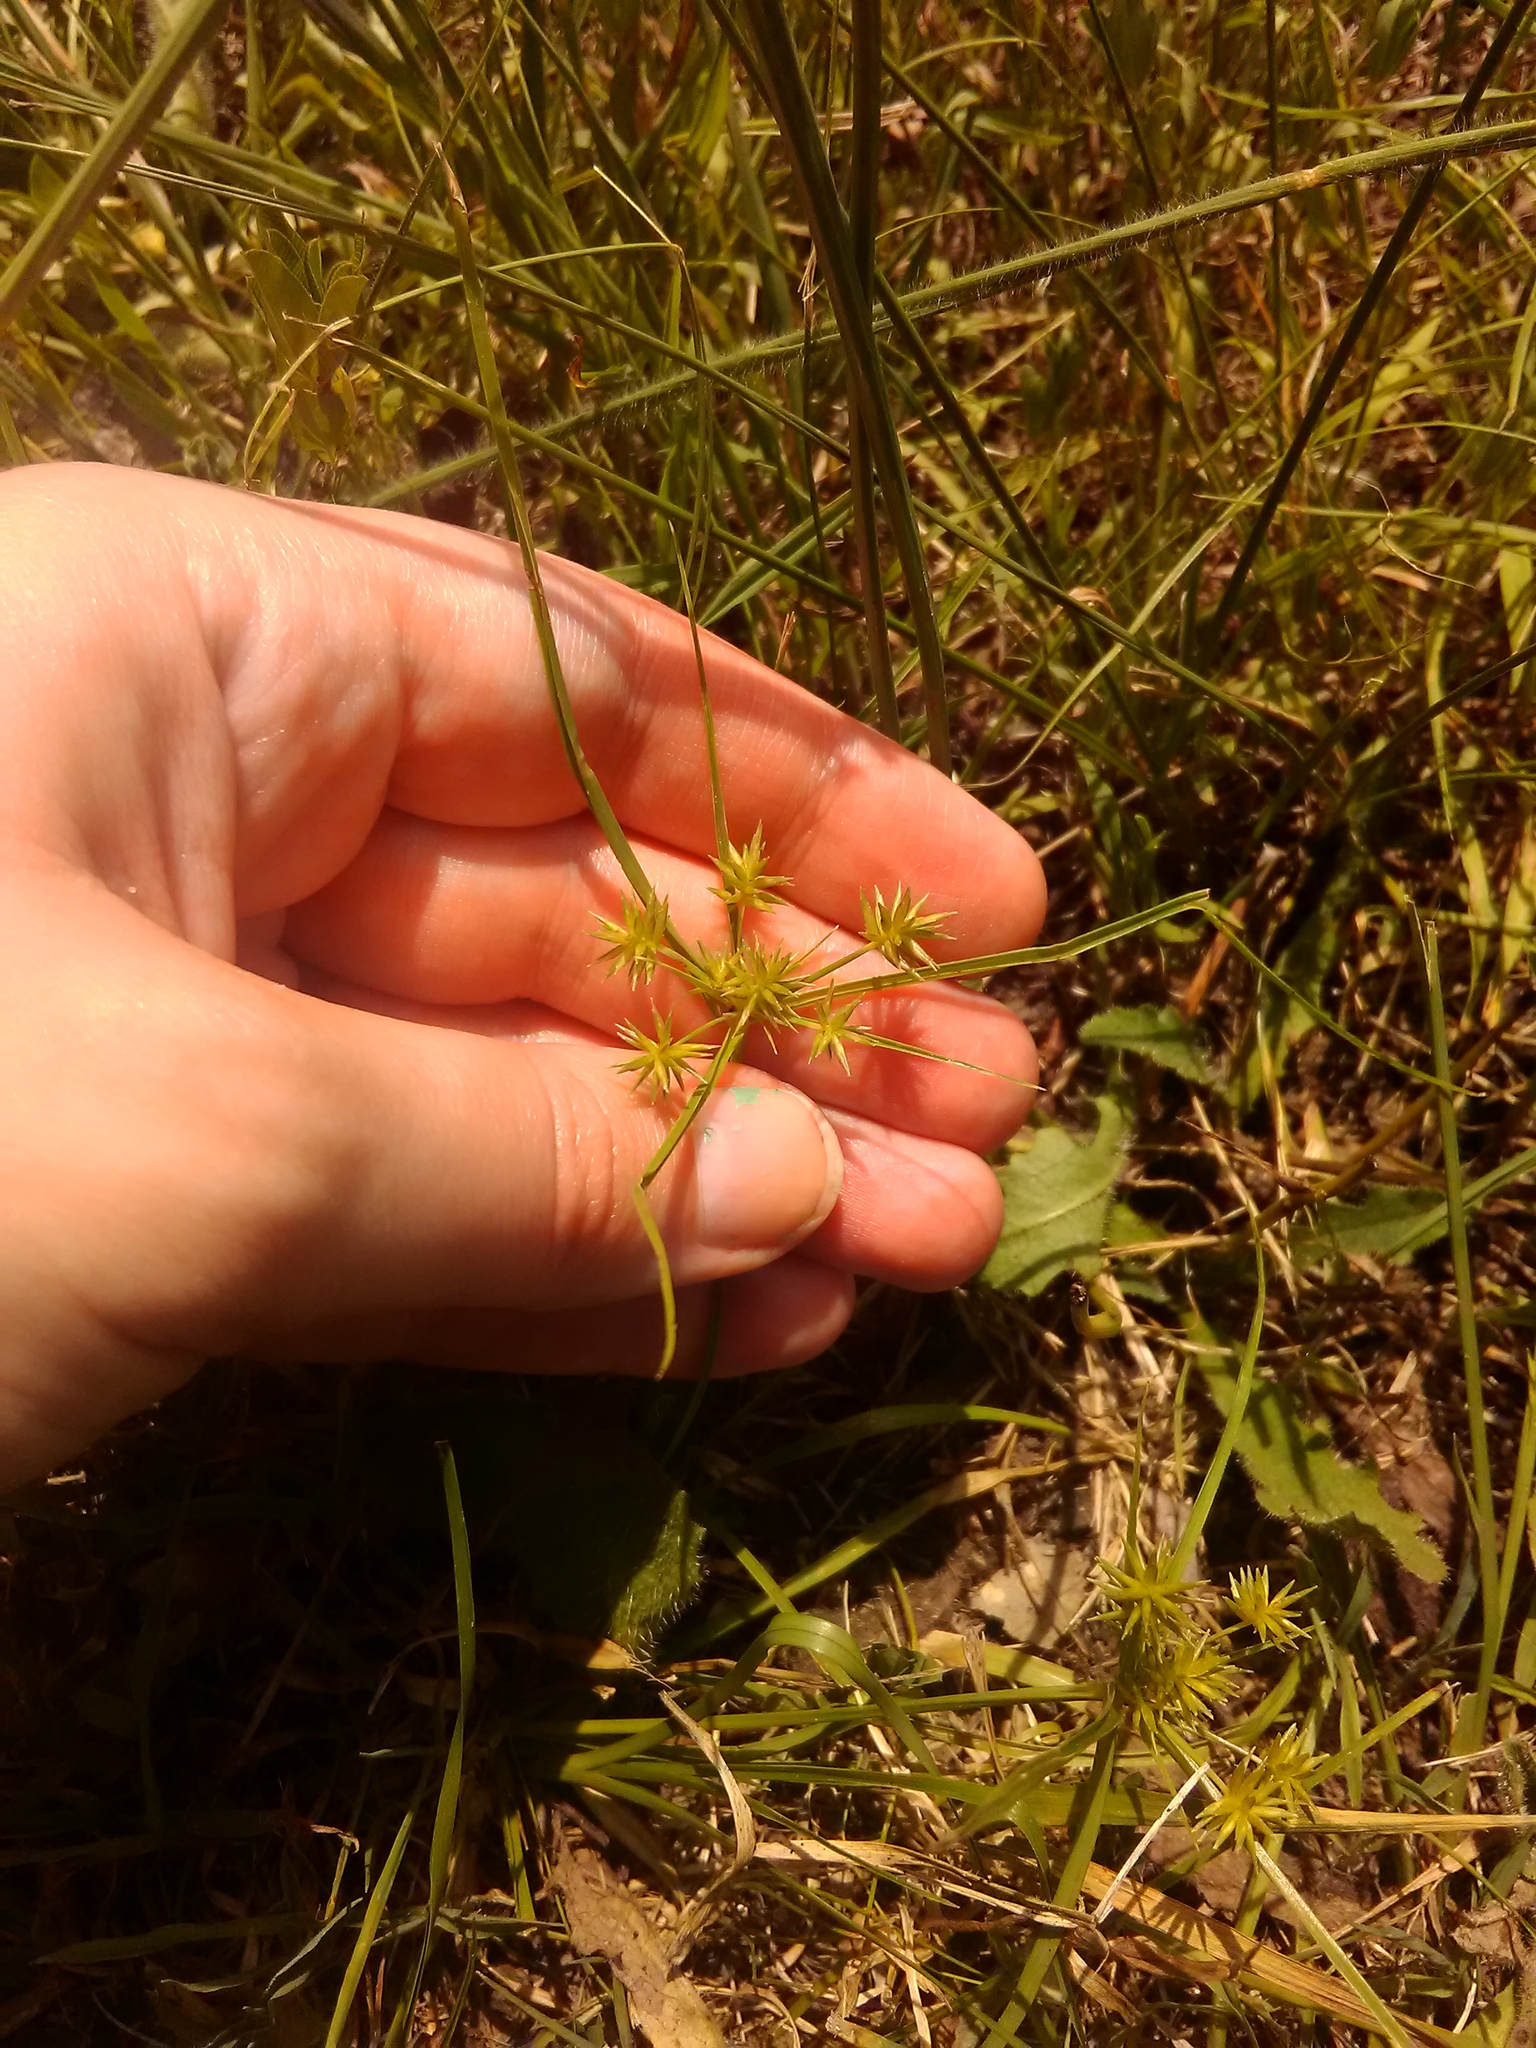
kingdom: Plantae
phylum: Tracheophyta
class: Liliopsida
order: Poales
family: Cyperaceae
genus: Cyperus
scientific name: Cyperus croceus
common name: Baldwin's flatsedge
